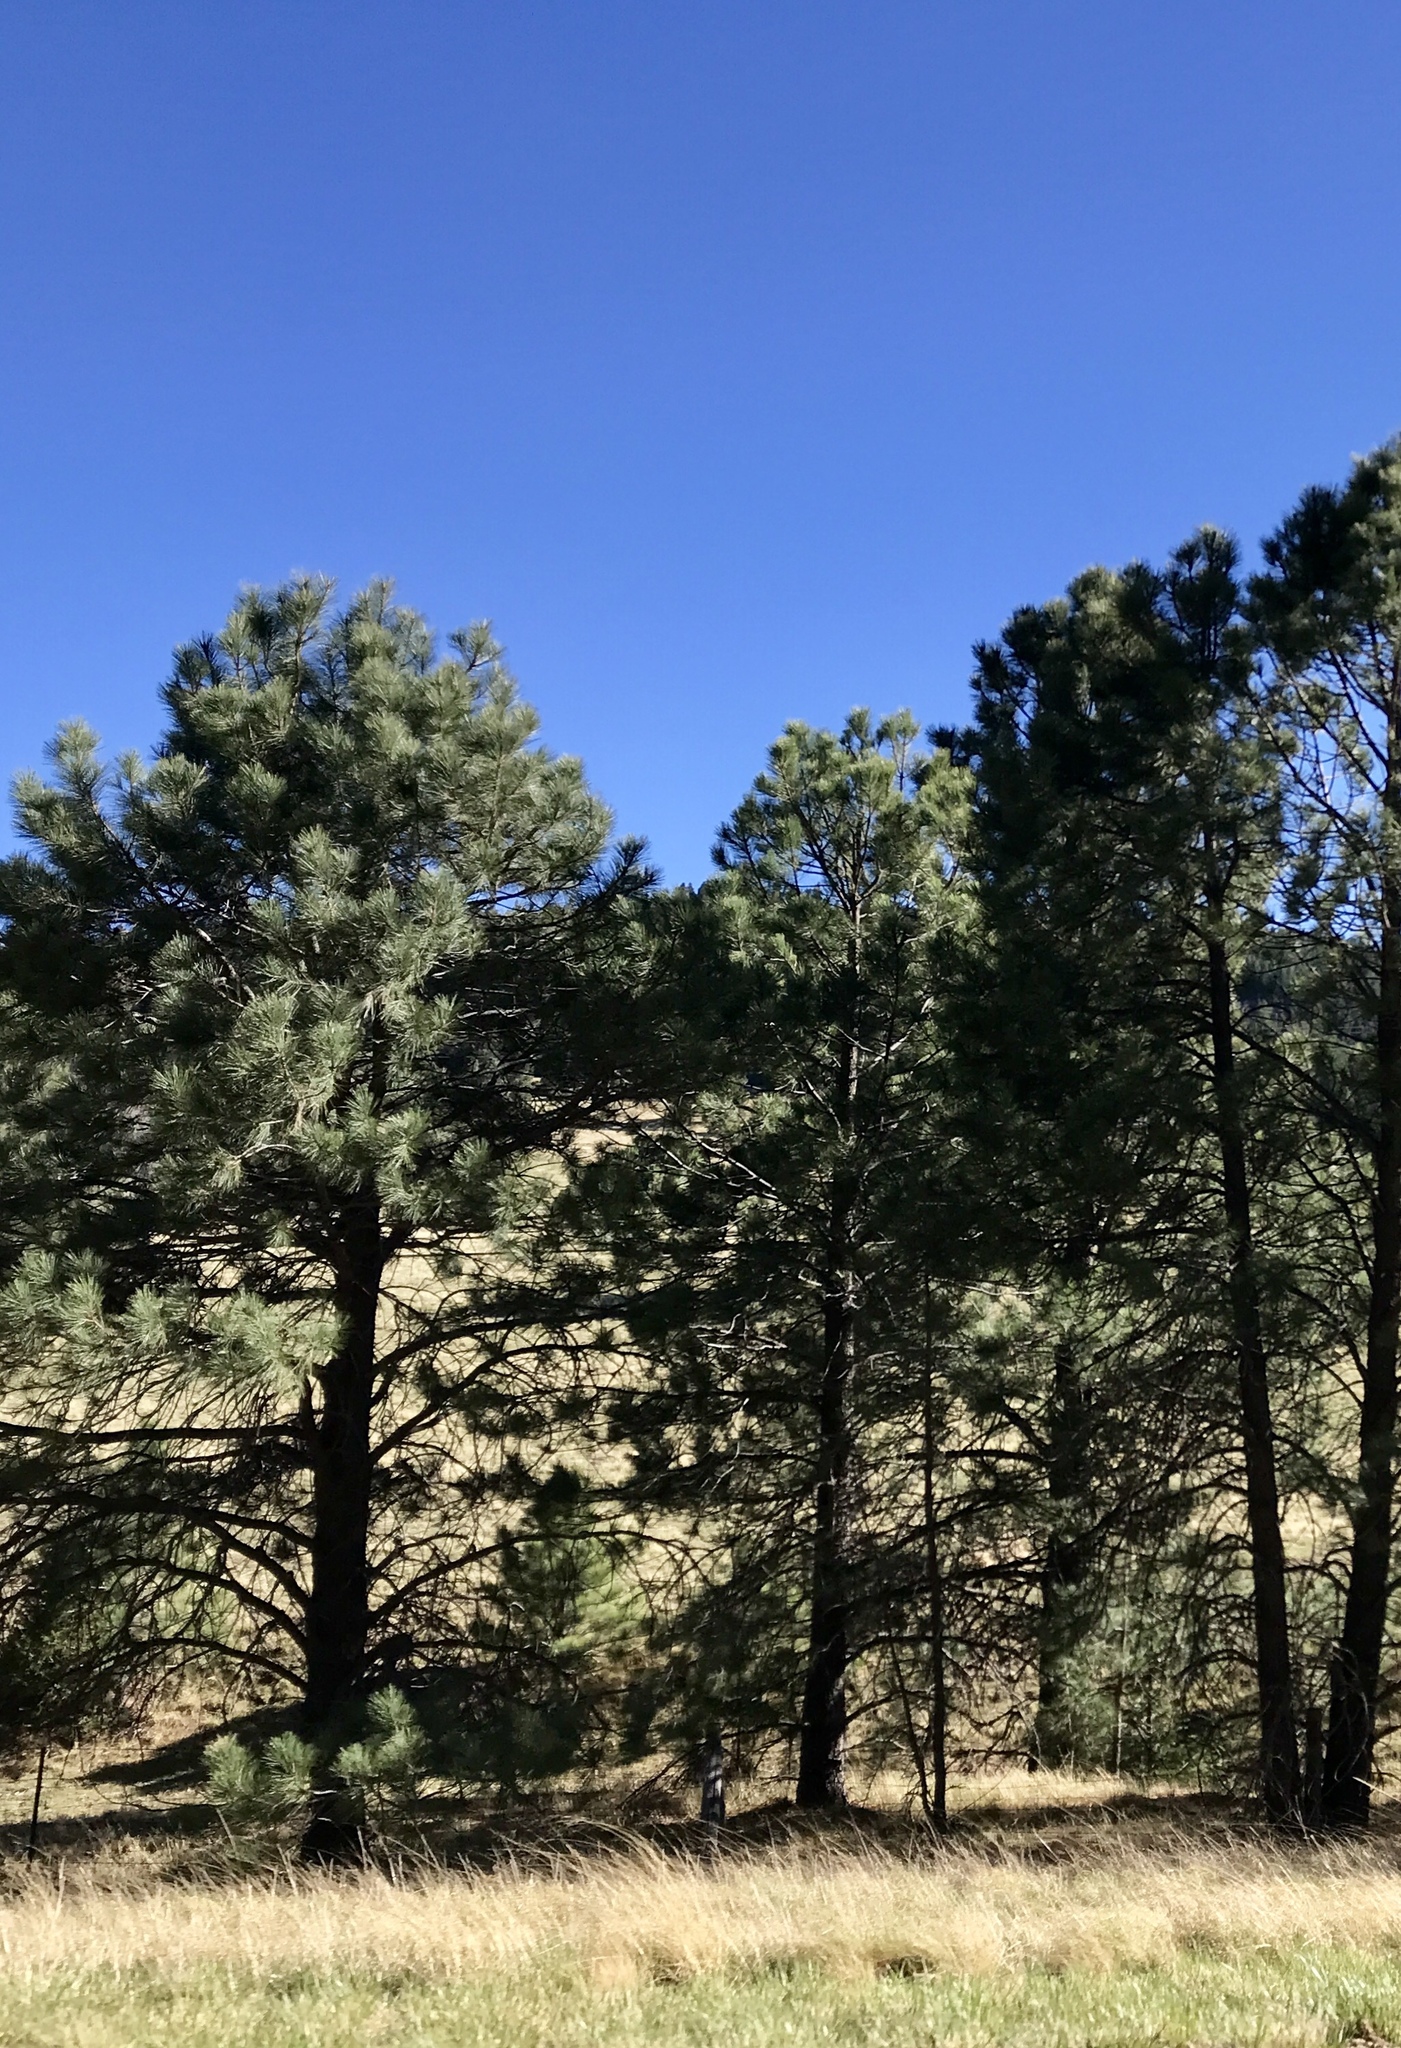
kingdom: Plantae
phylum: Tracheophyta
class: Pinopsida
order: Pinales
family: Pinaceae
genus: Pinus
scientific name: Pinus ponderosa
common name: Western yellow-pine
